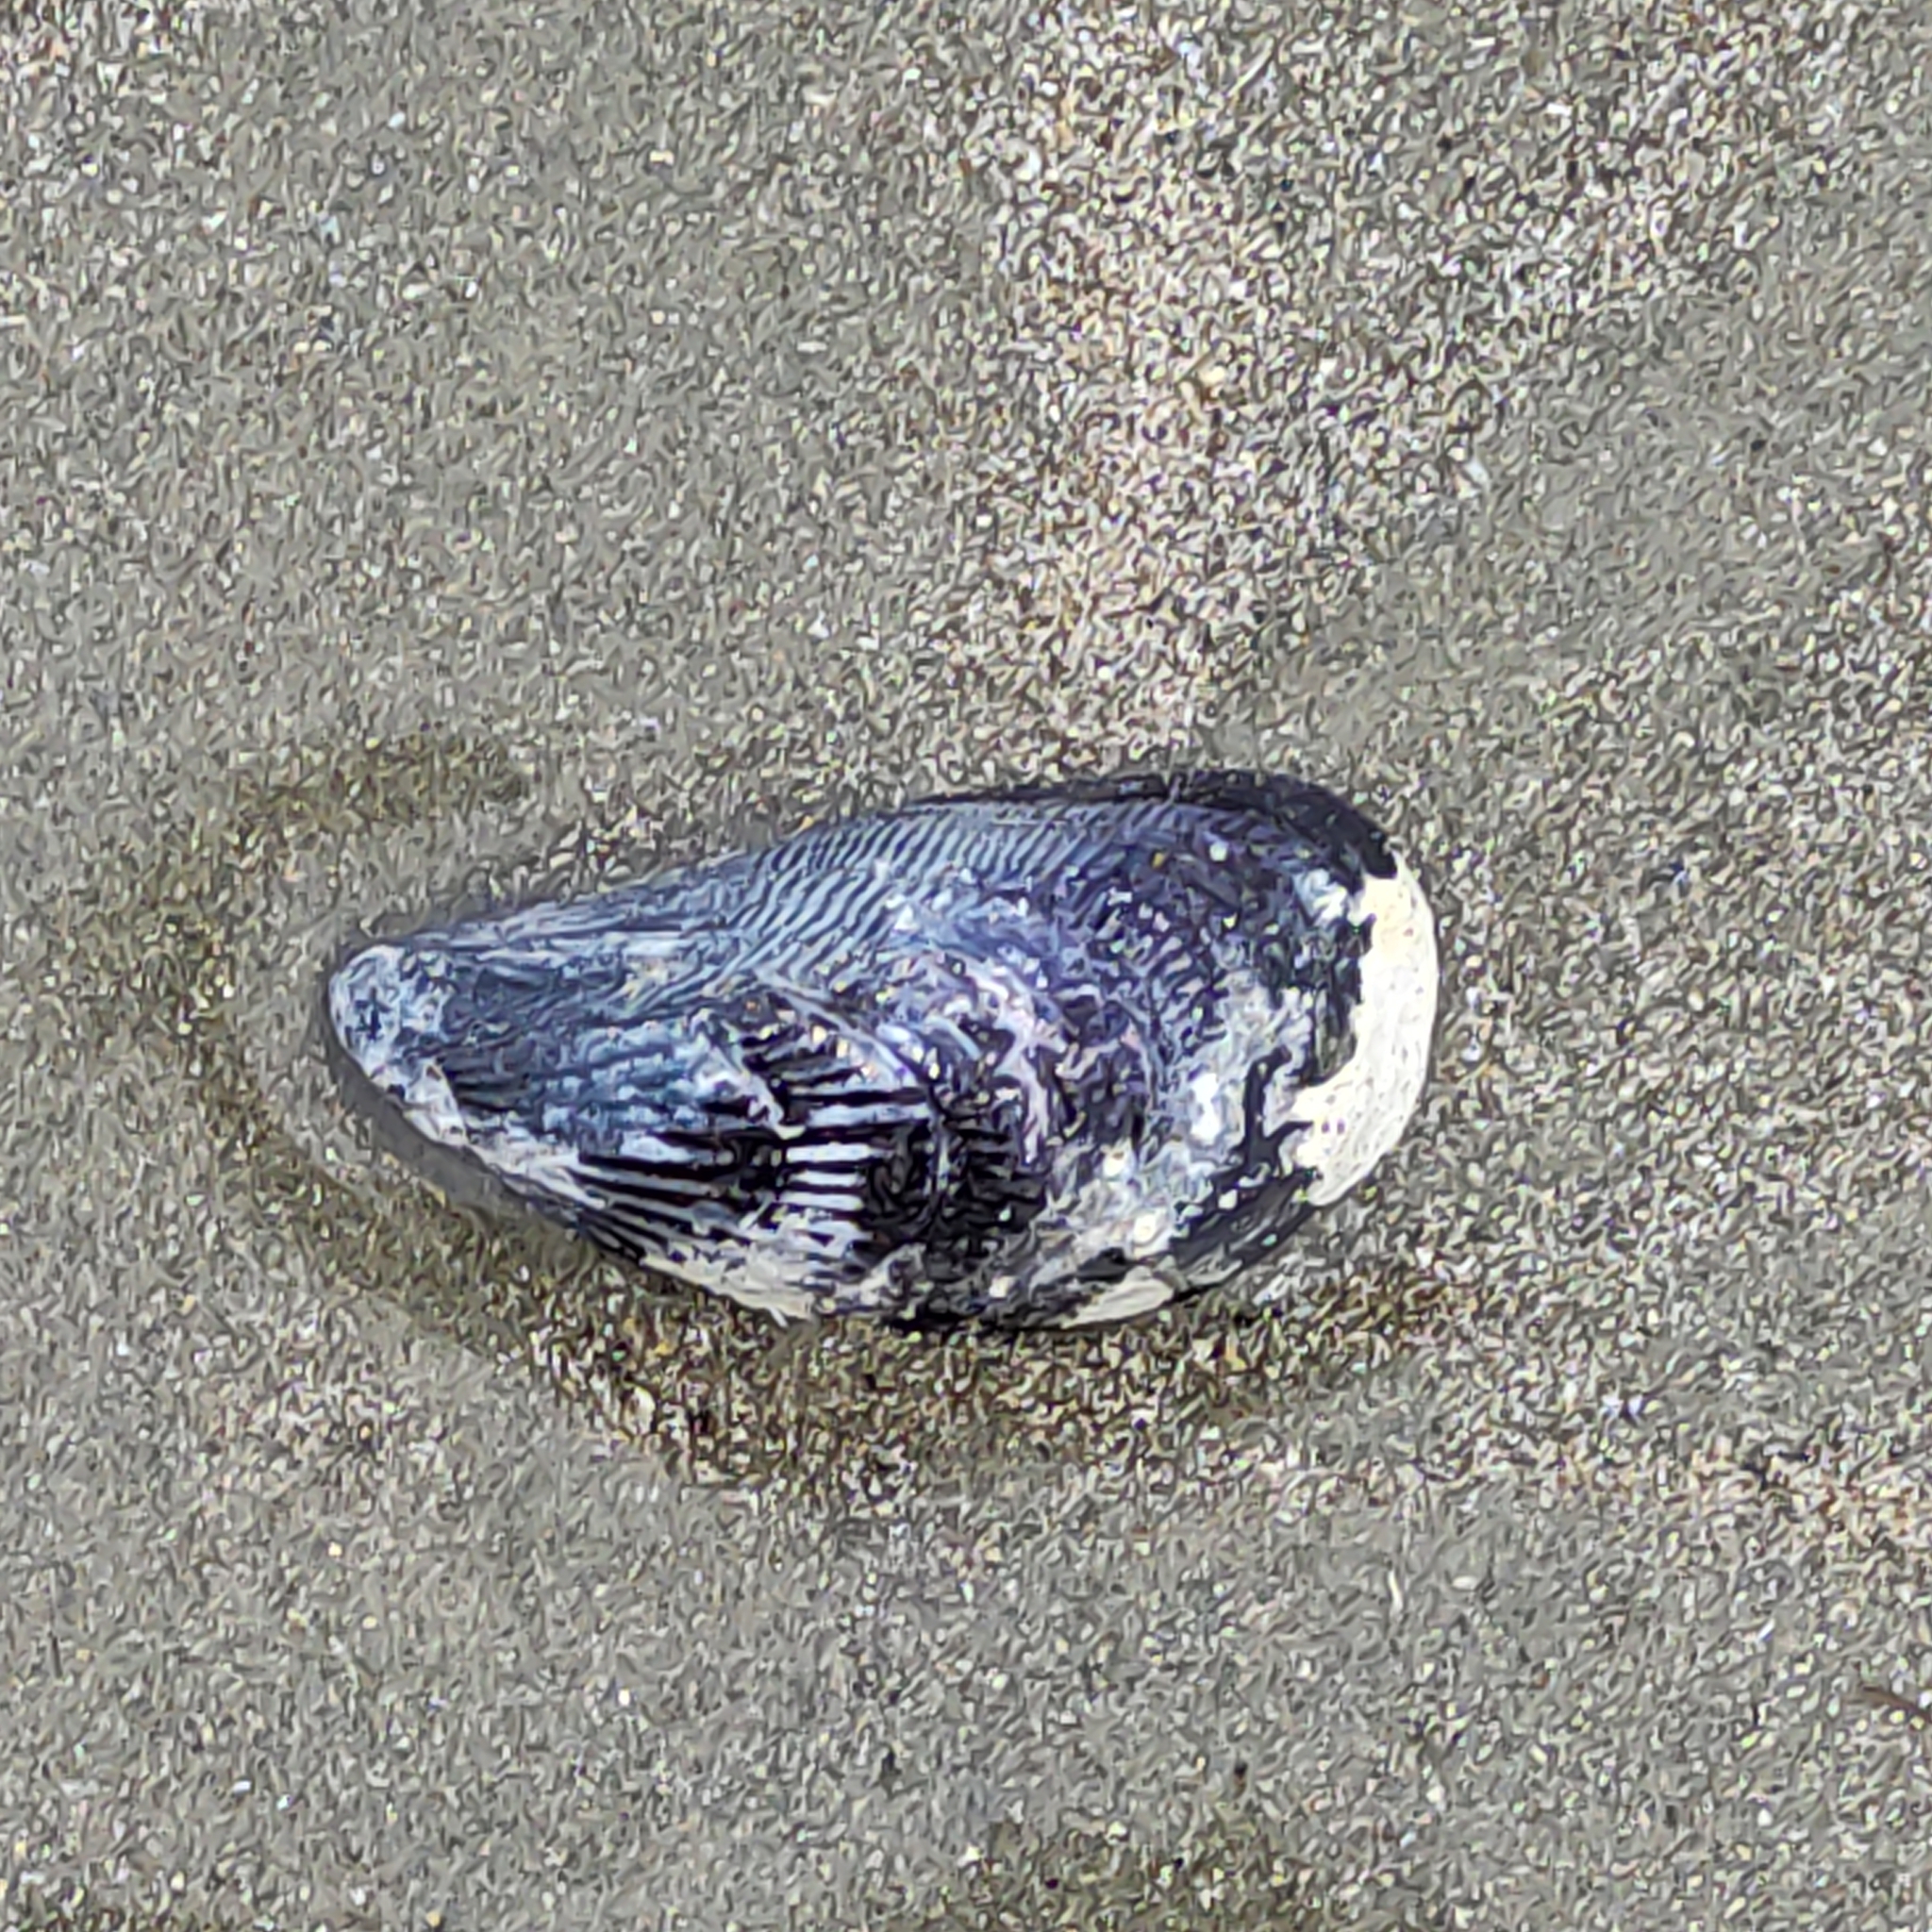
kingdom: Animalia
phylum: Mollusca
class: Bivalvia
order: Mytilida
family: Mytilidae
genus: Aulacomya
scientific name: Aulacomya maoriana
